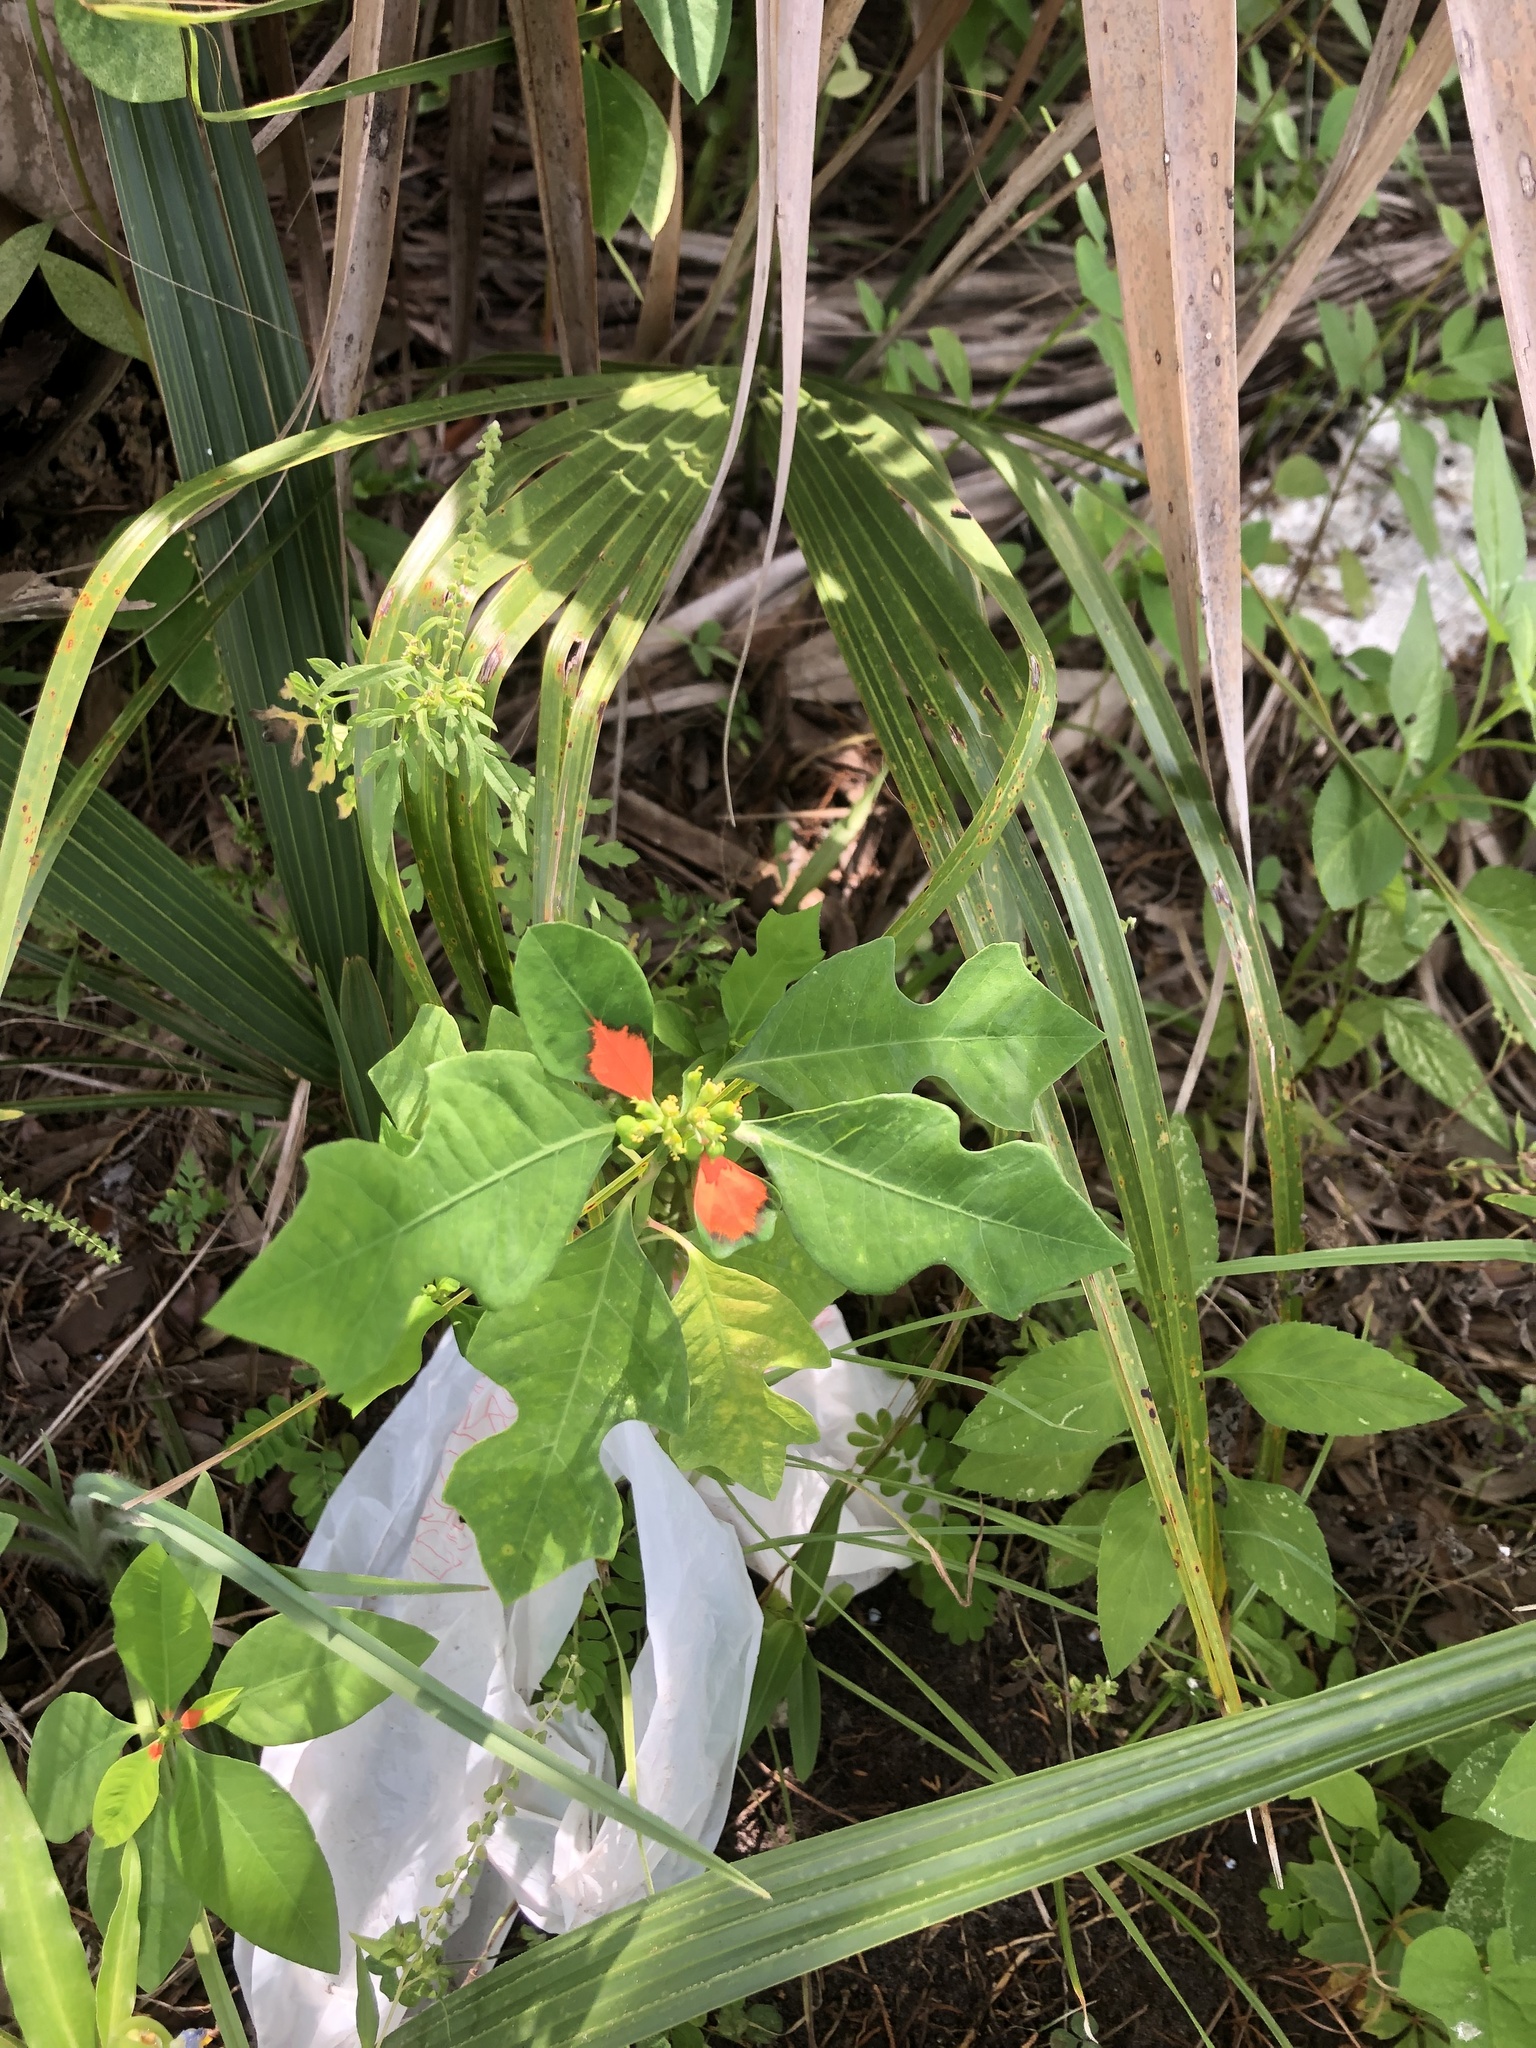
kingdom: Plantae
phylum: Tracheophyta
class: Magnoliopsida
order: Malpighiales
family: Euphorbiaceae
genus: Euphorbia
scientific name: Euphorbia heterophylla
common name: Mexican fireplant
